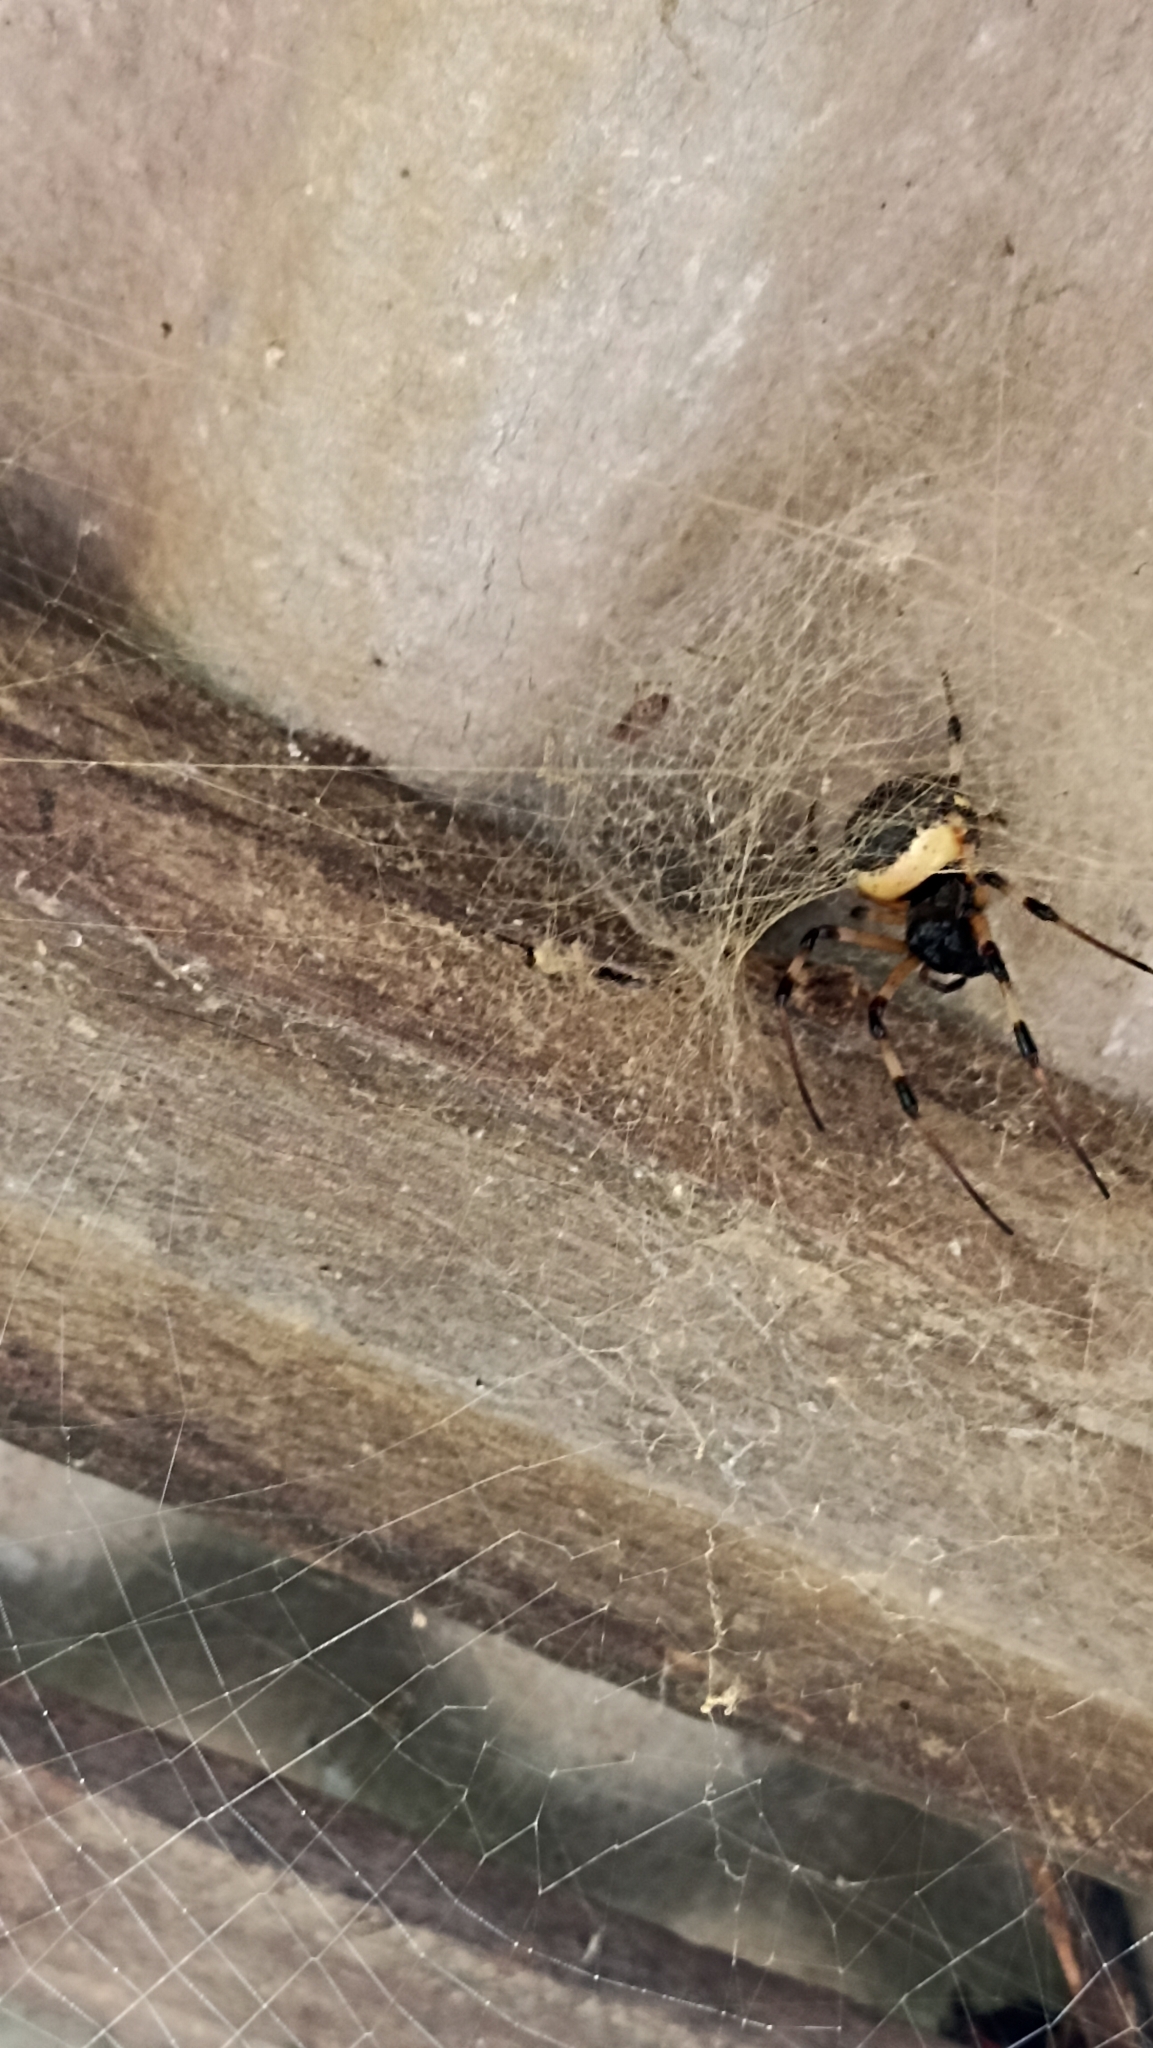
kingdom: Animalia
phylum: Arthropoda
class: Arachnida
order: Araneae
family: Araneidae
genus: Nephilingis
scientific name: Nephilingis cruentata
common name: African hermit spider
